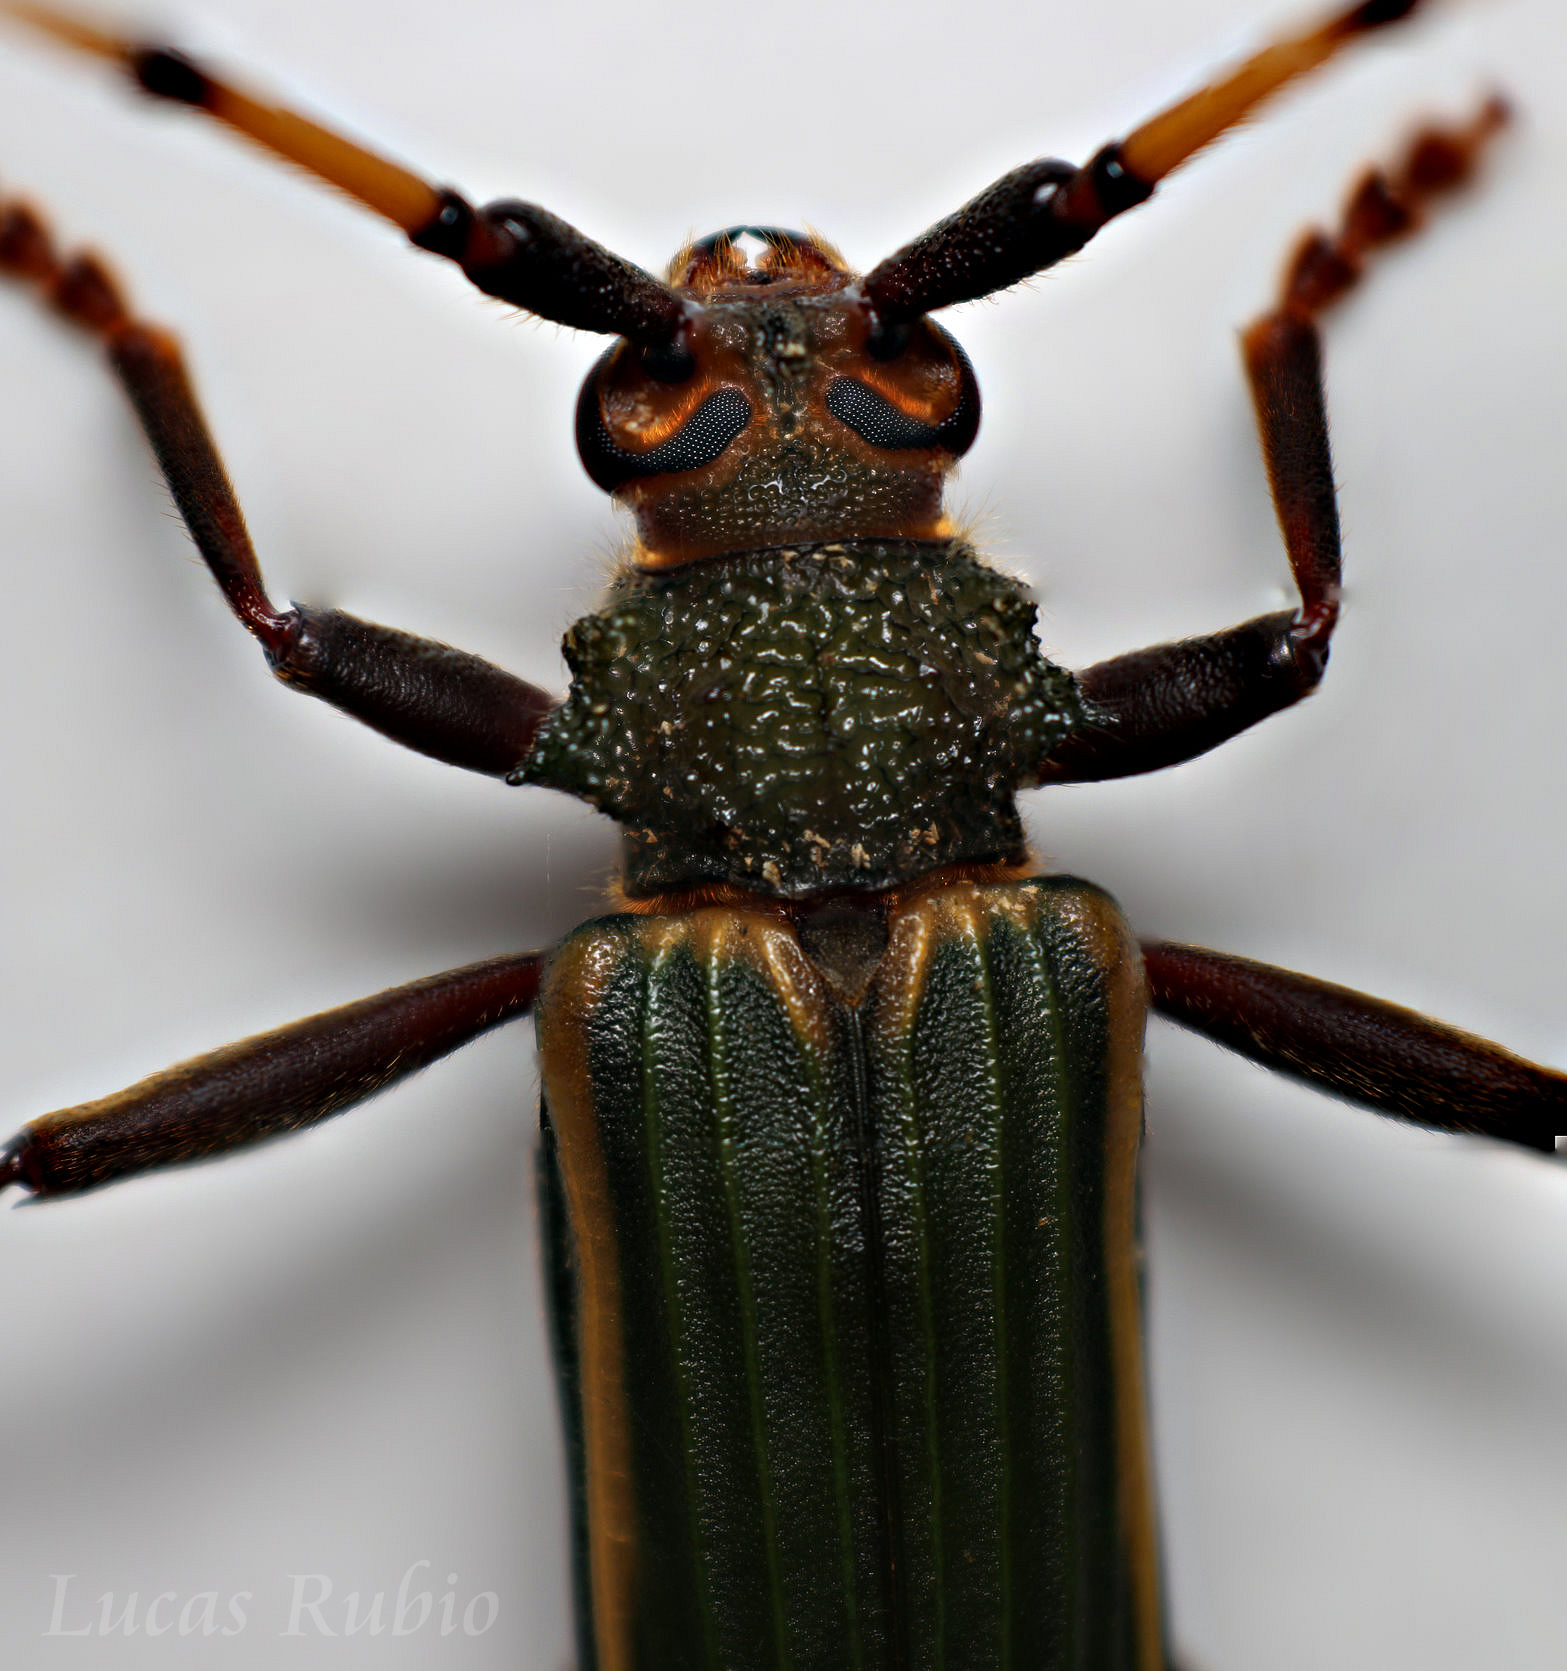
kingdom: Animalia
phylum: Arthropoda
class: Insecta
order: Coleoptera
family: Cerambycidae
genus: Chlorida
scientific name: Chlorida costata
